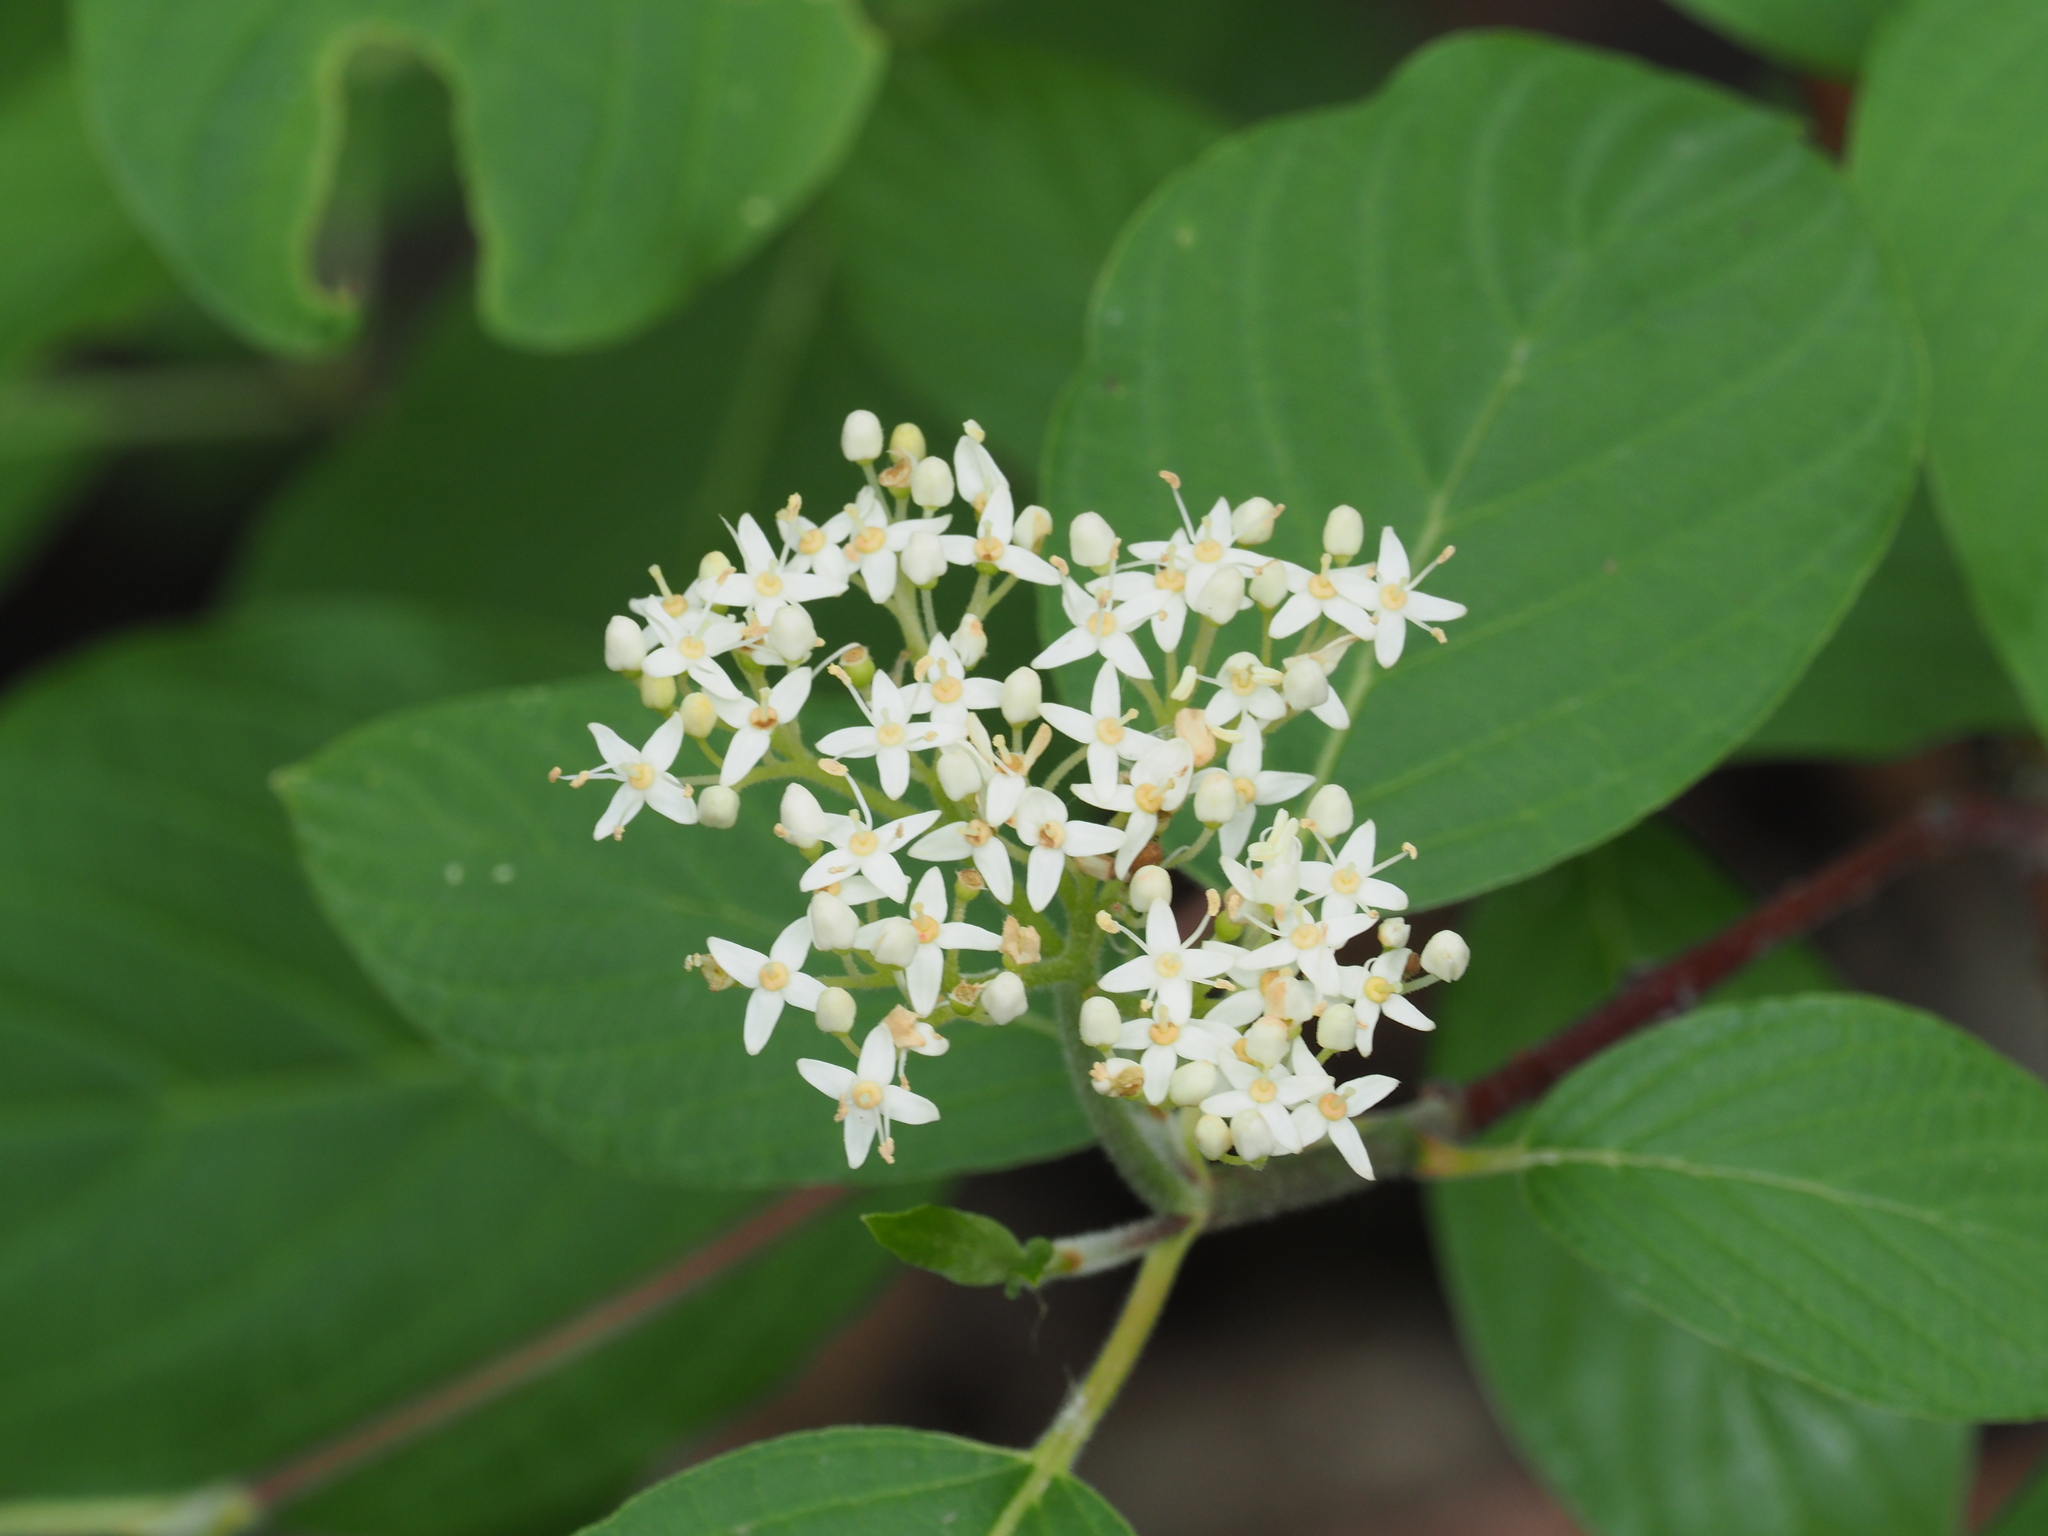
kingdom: Plantae
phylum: Tracheophyta
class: Magnoliopsida
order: Cornales
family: Cornaceae
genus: Cornus
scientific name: Cornus sericea
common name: Red-osier dogwood
